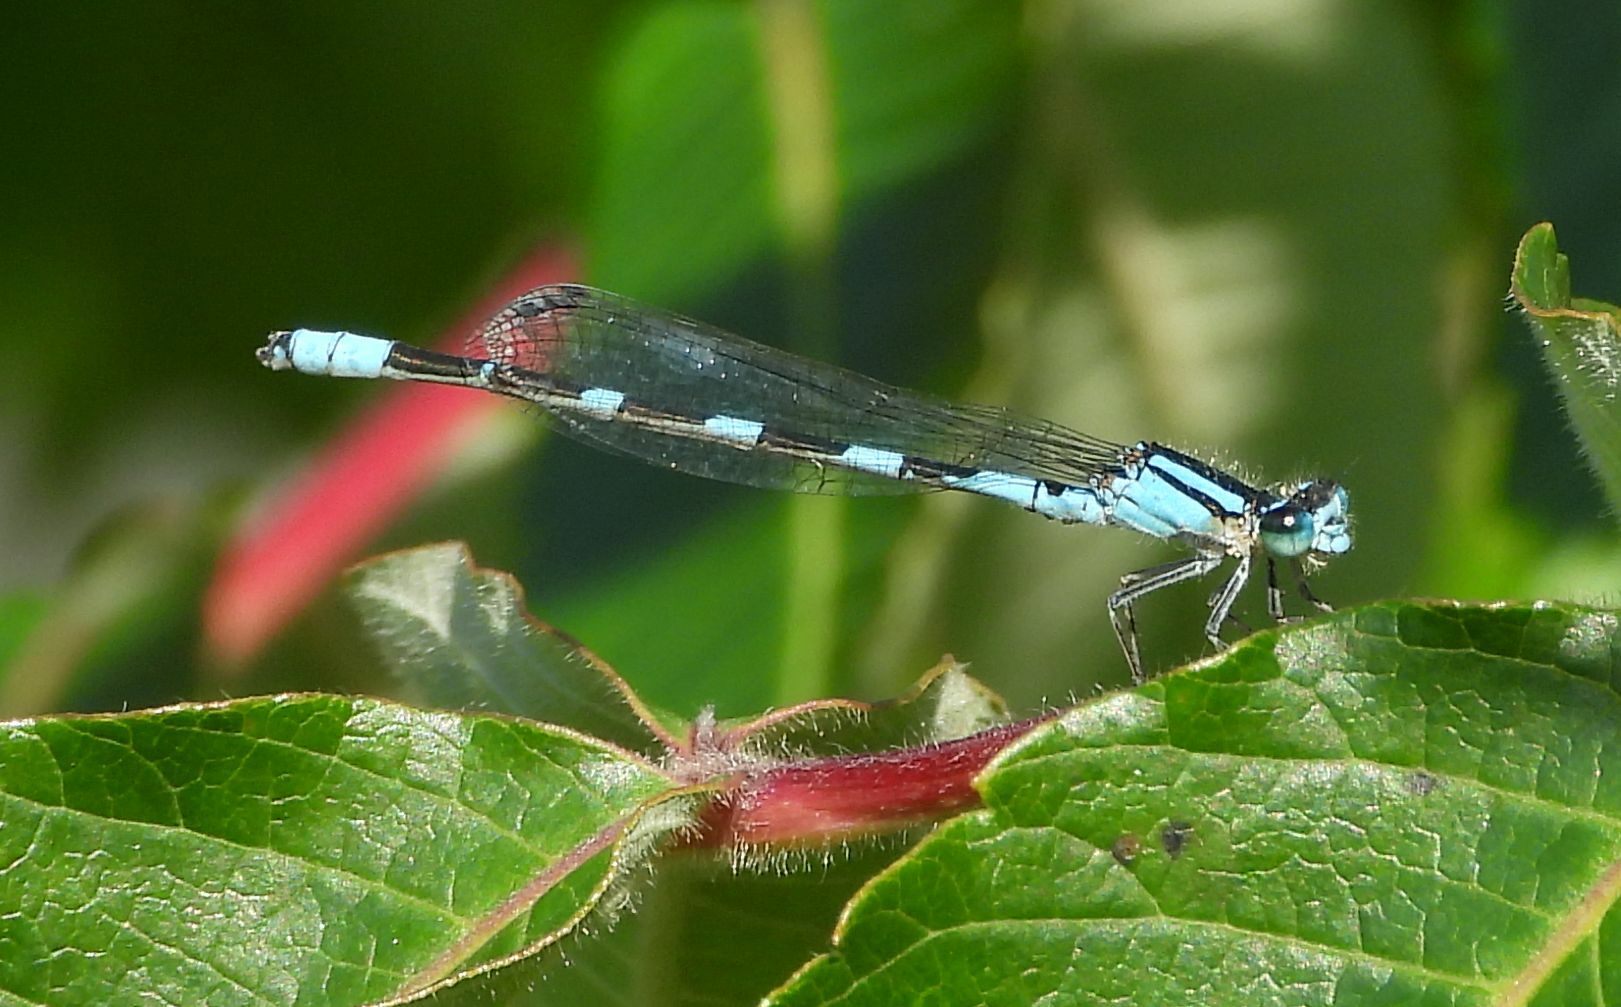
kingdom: Animalia
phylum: Arthropoda
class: Insecta
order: Odonata
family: Coenagrionidae
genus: Enallagma
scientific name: Enallagma carunculatum
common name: Tule bluet
